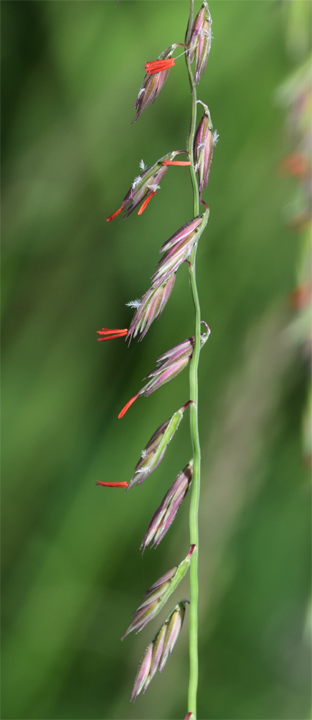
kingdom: Plantae
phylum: Tracheophyta
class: Liliopsida
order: Poales
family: Poaceae
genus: Bouteloua
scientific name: Bouteloua curtipendula
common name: Side-oats grama
